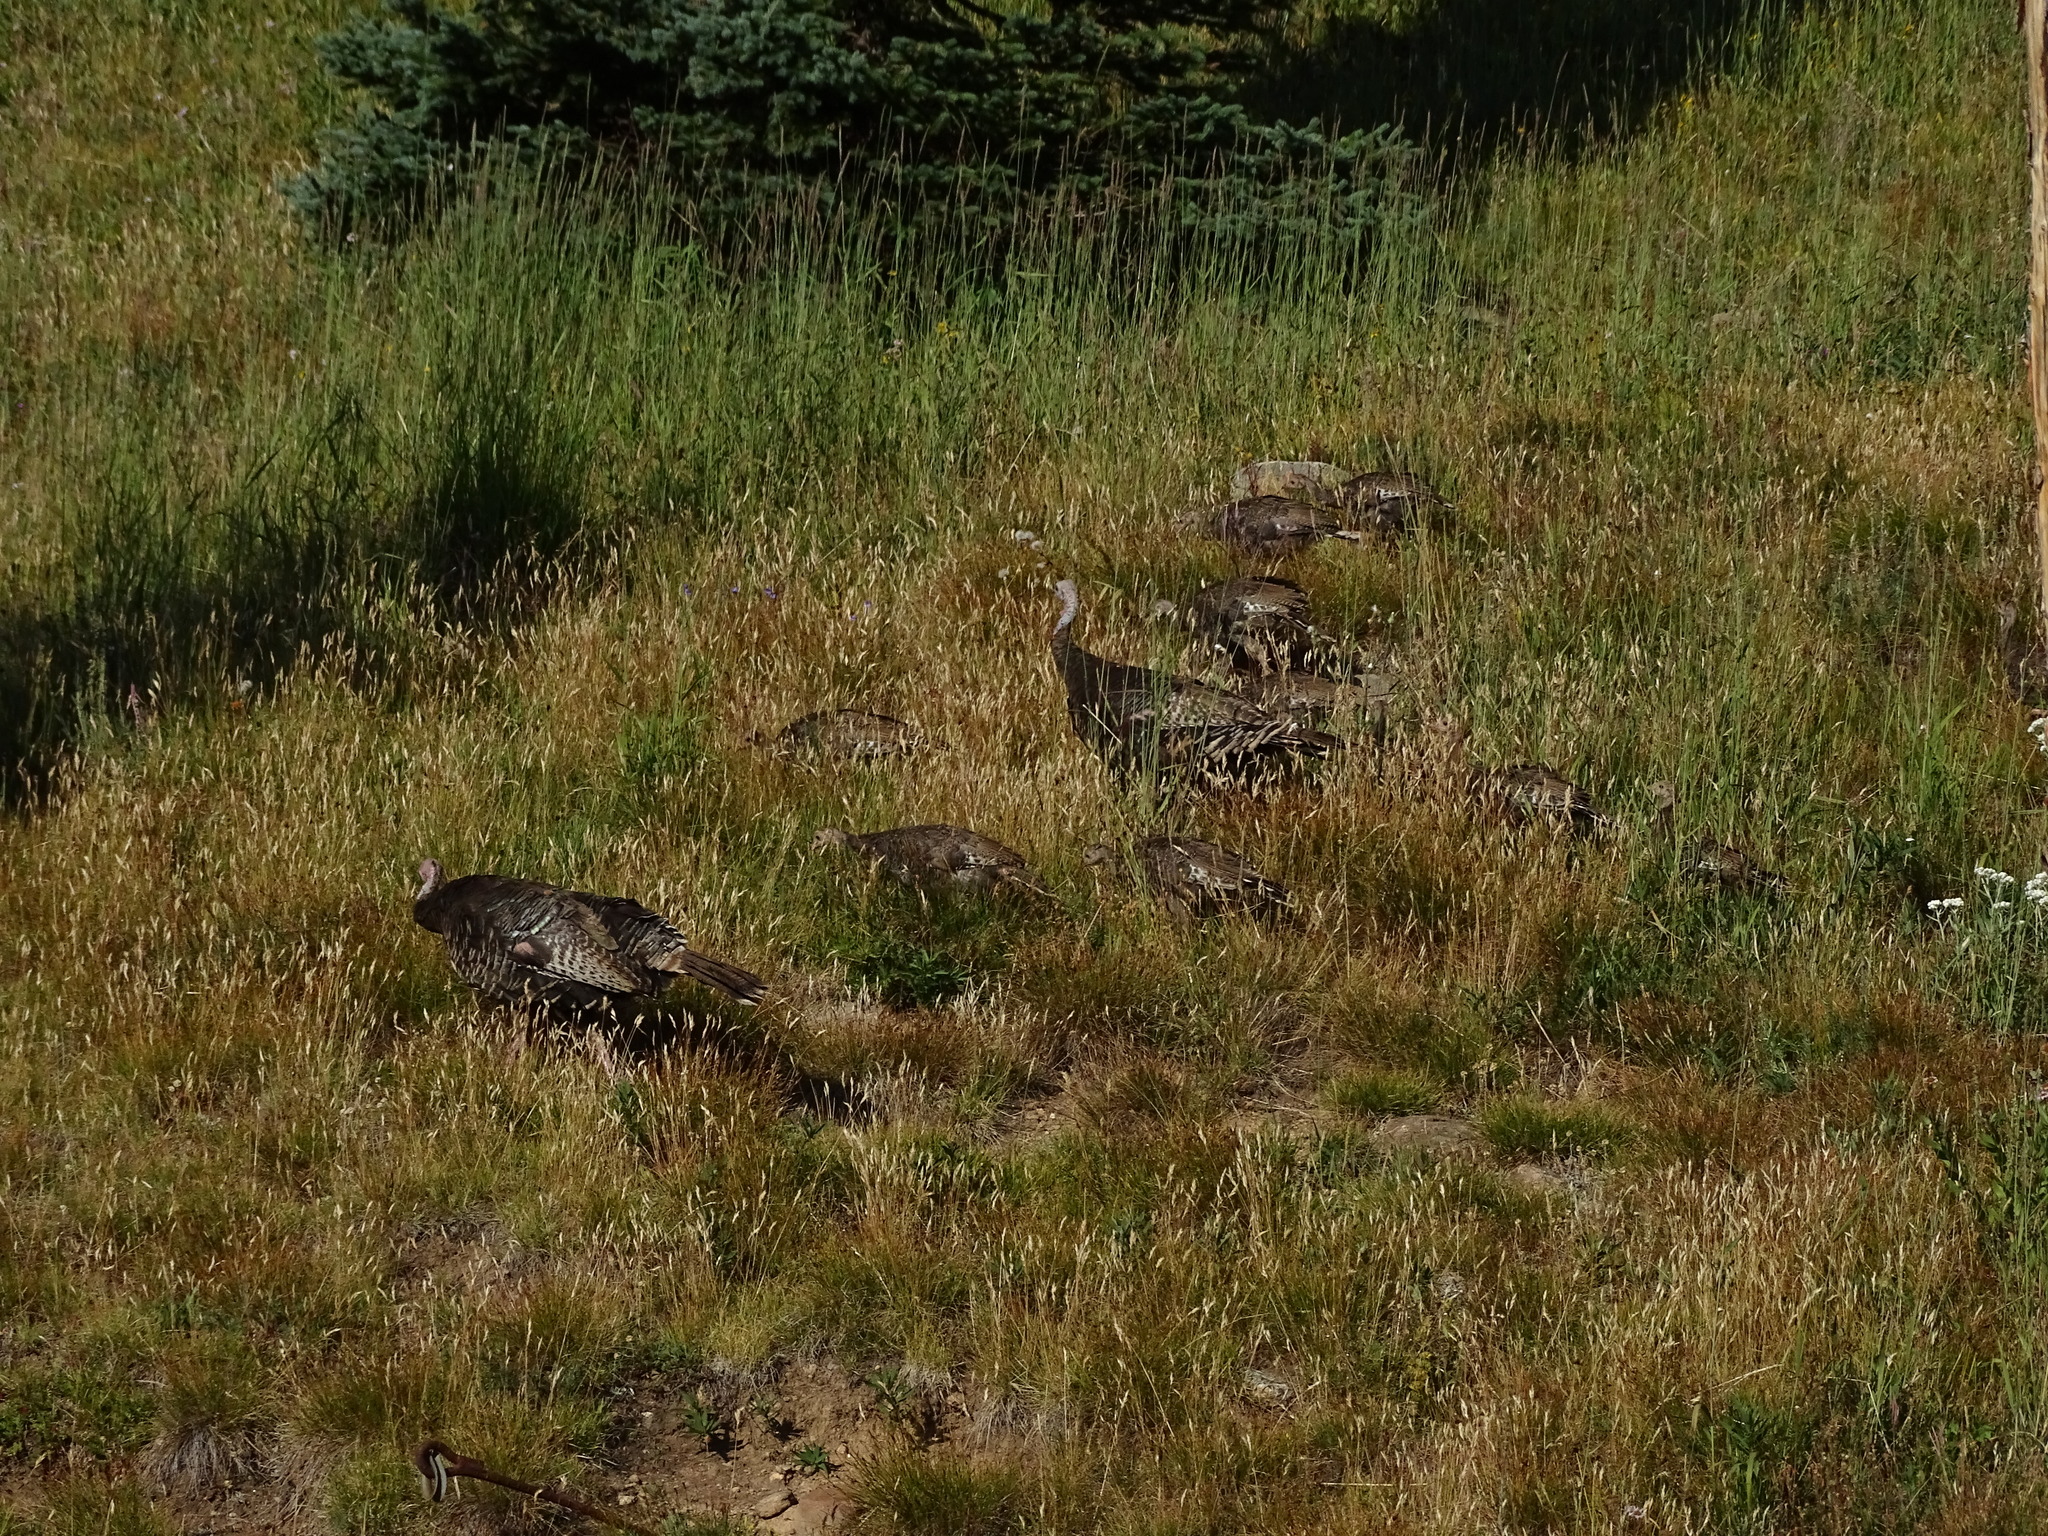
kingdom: Animalia
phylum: Chordata
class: Aves
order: Galliformes
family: Phasianidae
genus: Meleagris
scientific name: Meleagris gallopavo
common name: Wild turkey
